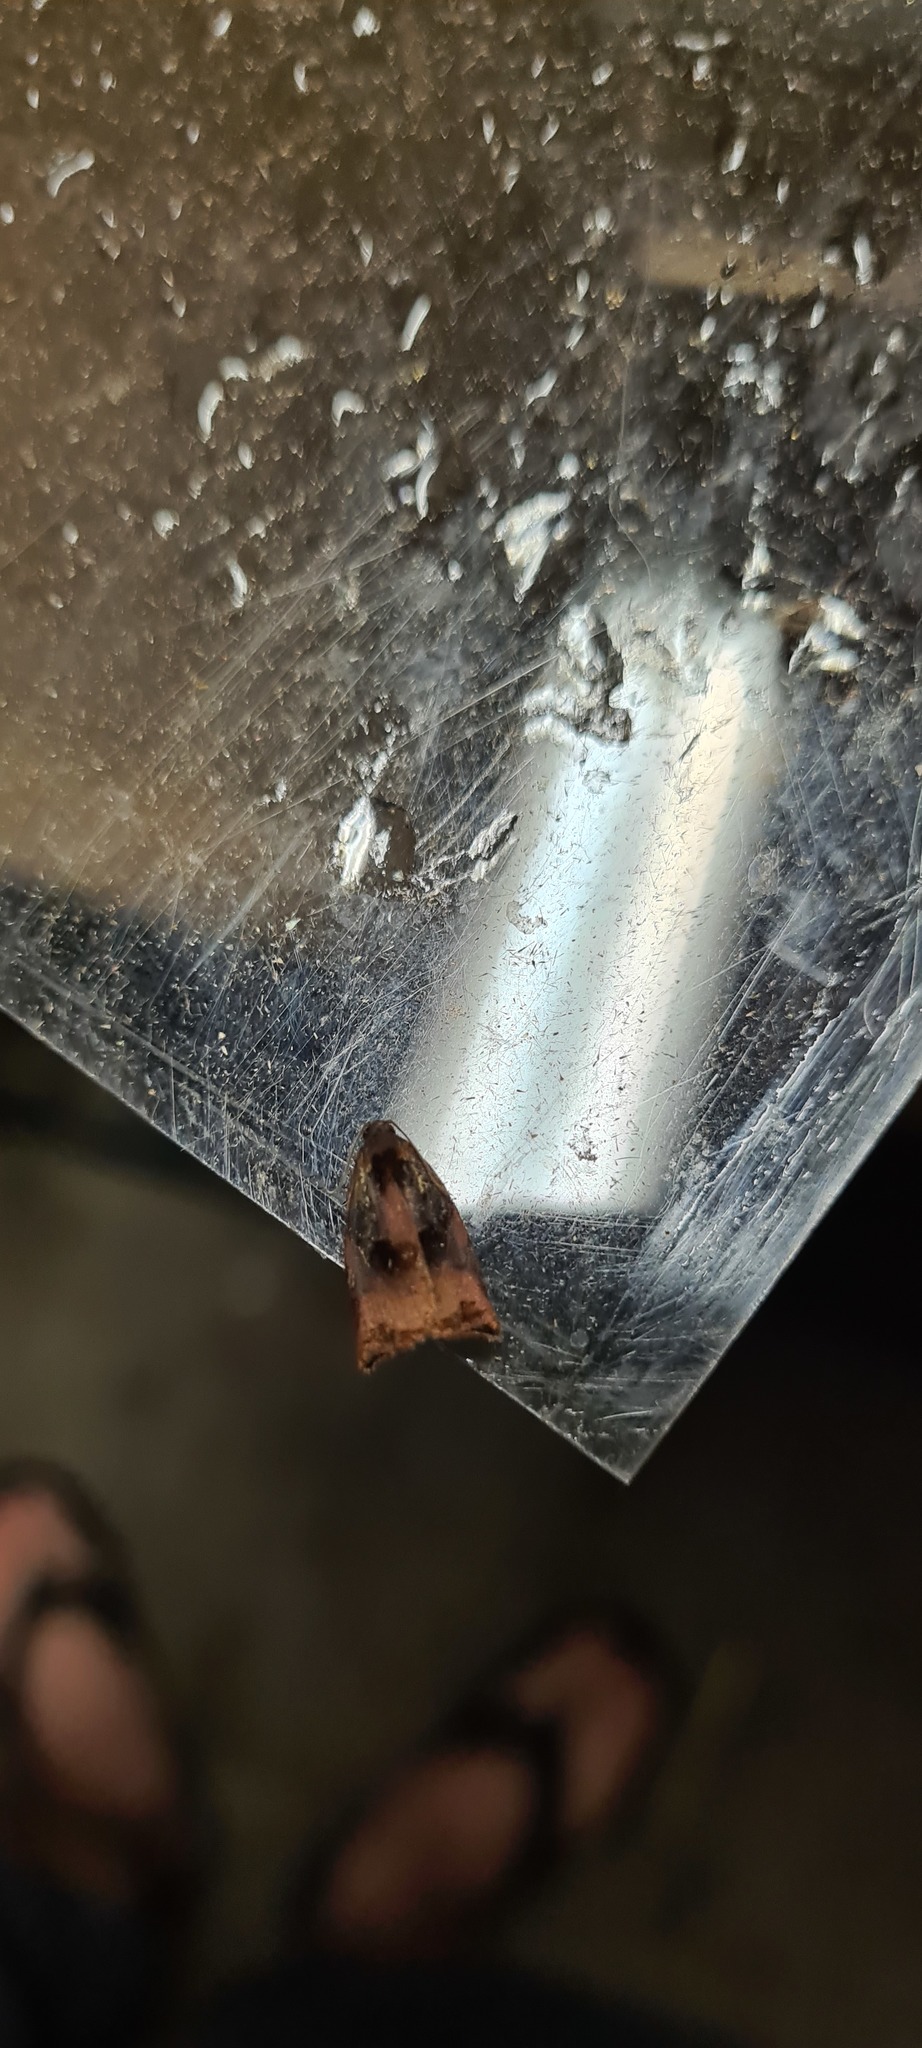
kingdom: Animalia
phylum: Arthropoda
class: Insecta
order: Lepidoptera
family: Tortricidae
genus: Archips
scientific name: Archips podana
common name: Large fruit-tree tortrix
